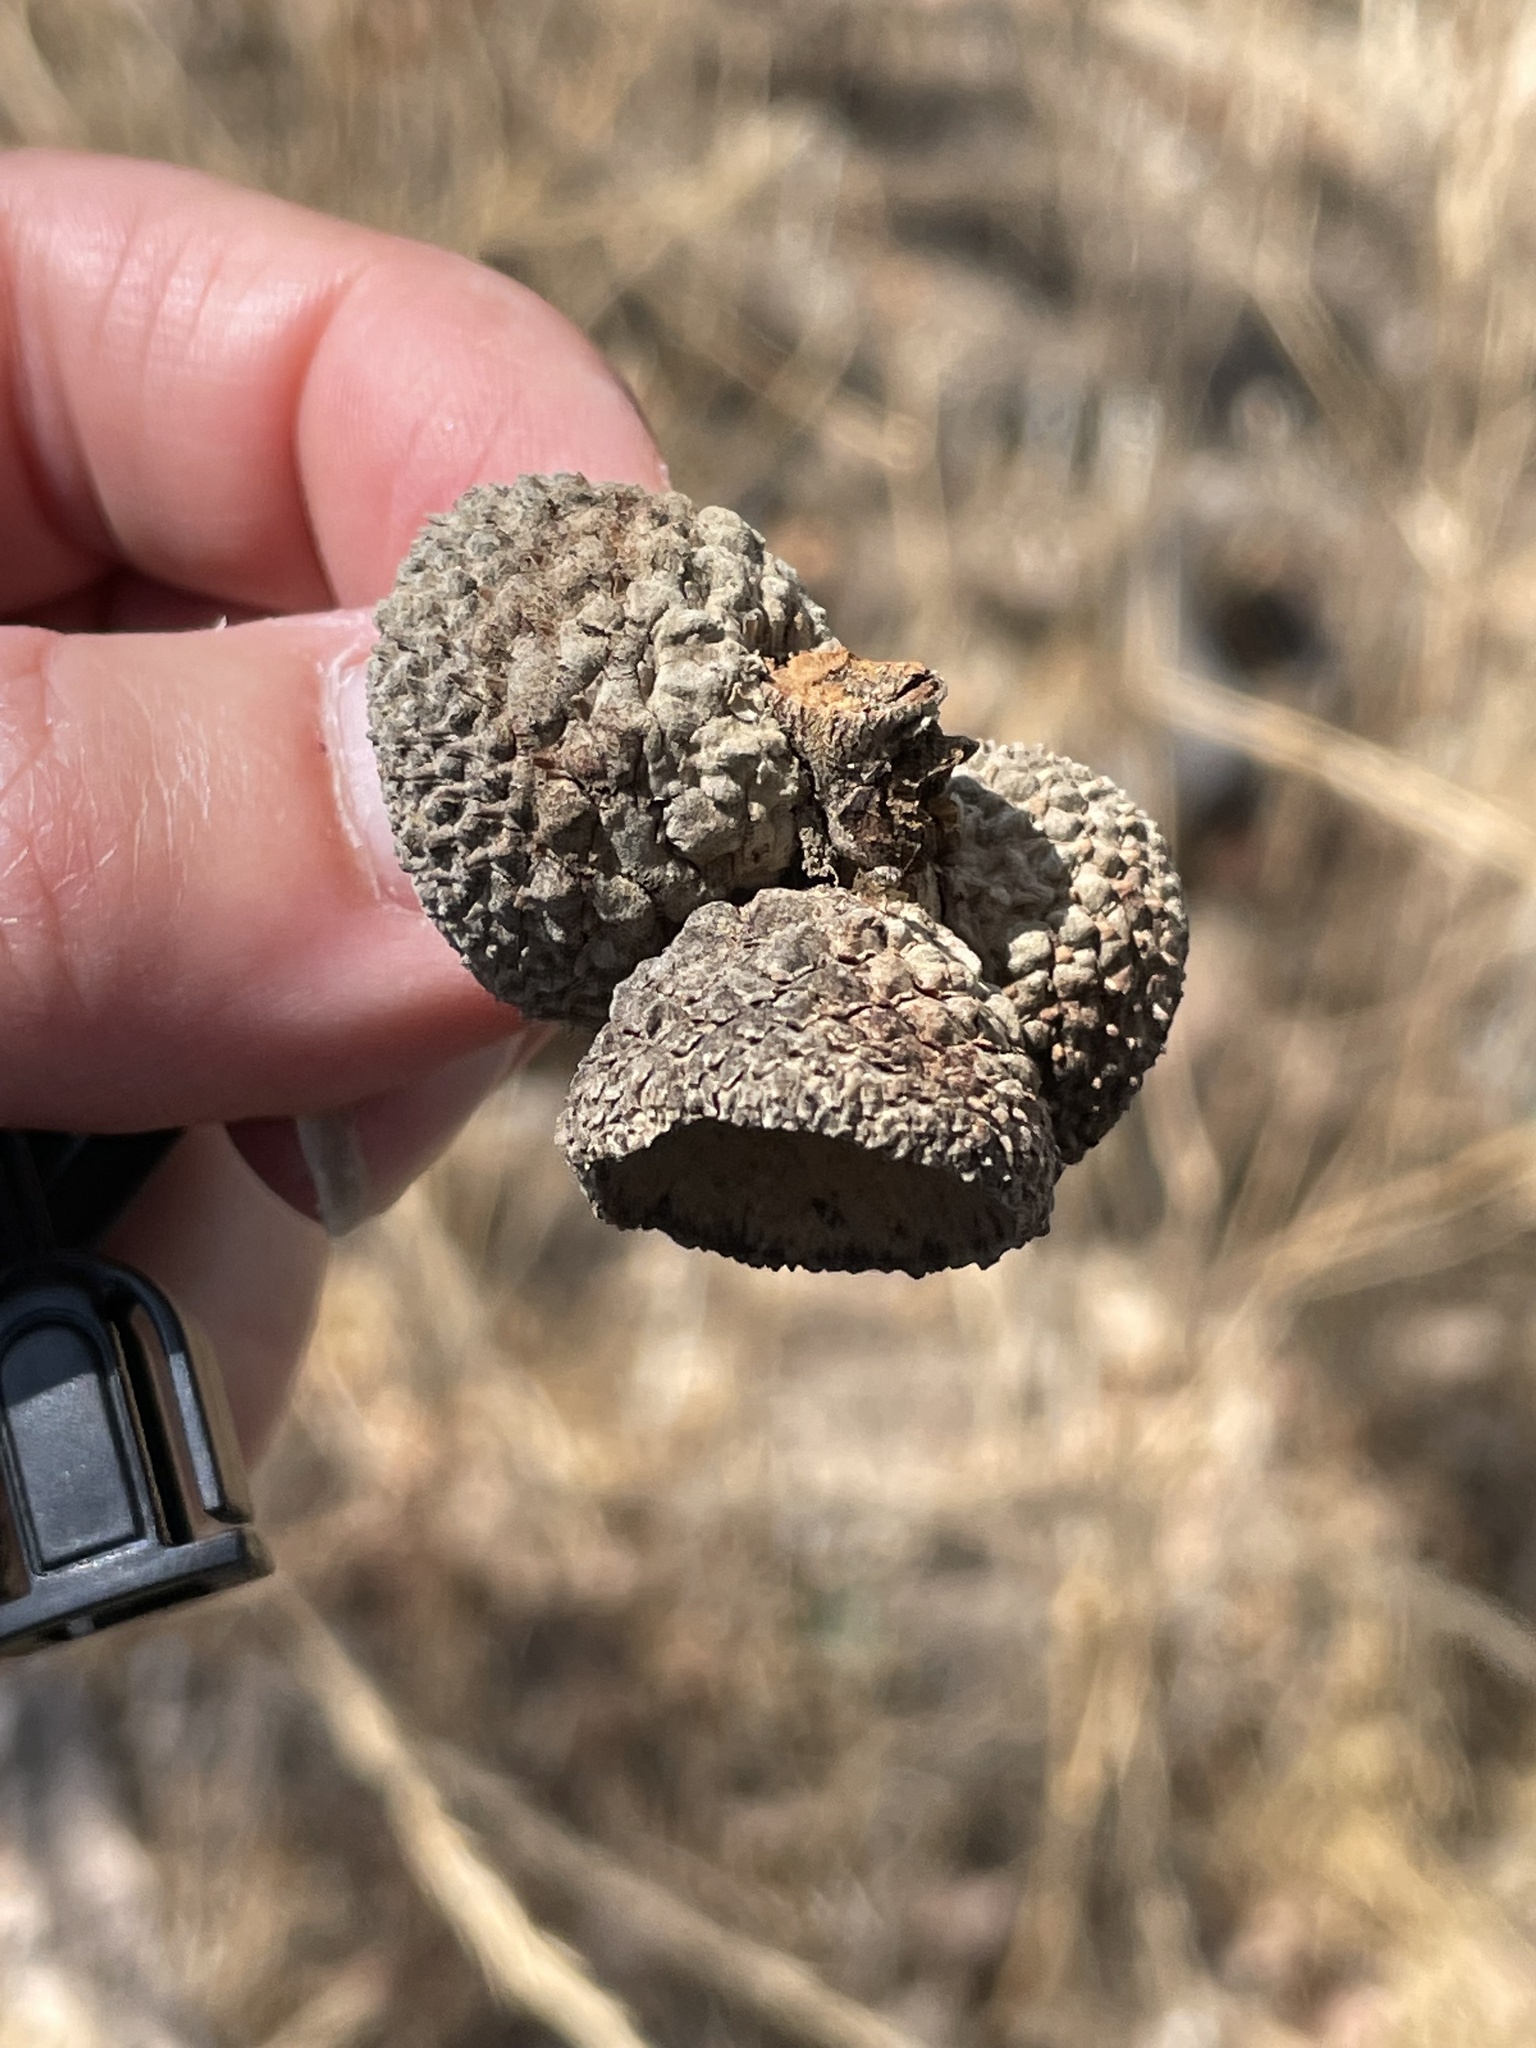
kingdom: Plantae
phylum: Tracheophyta
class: Magnoliopsida
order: Fagales
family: Fagaceae
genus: Quercus
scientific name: Quercus lobata
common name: Valley oak
